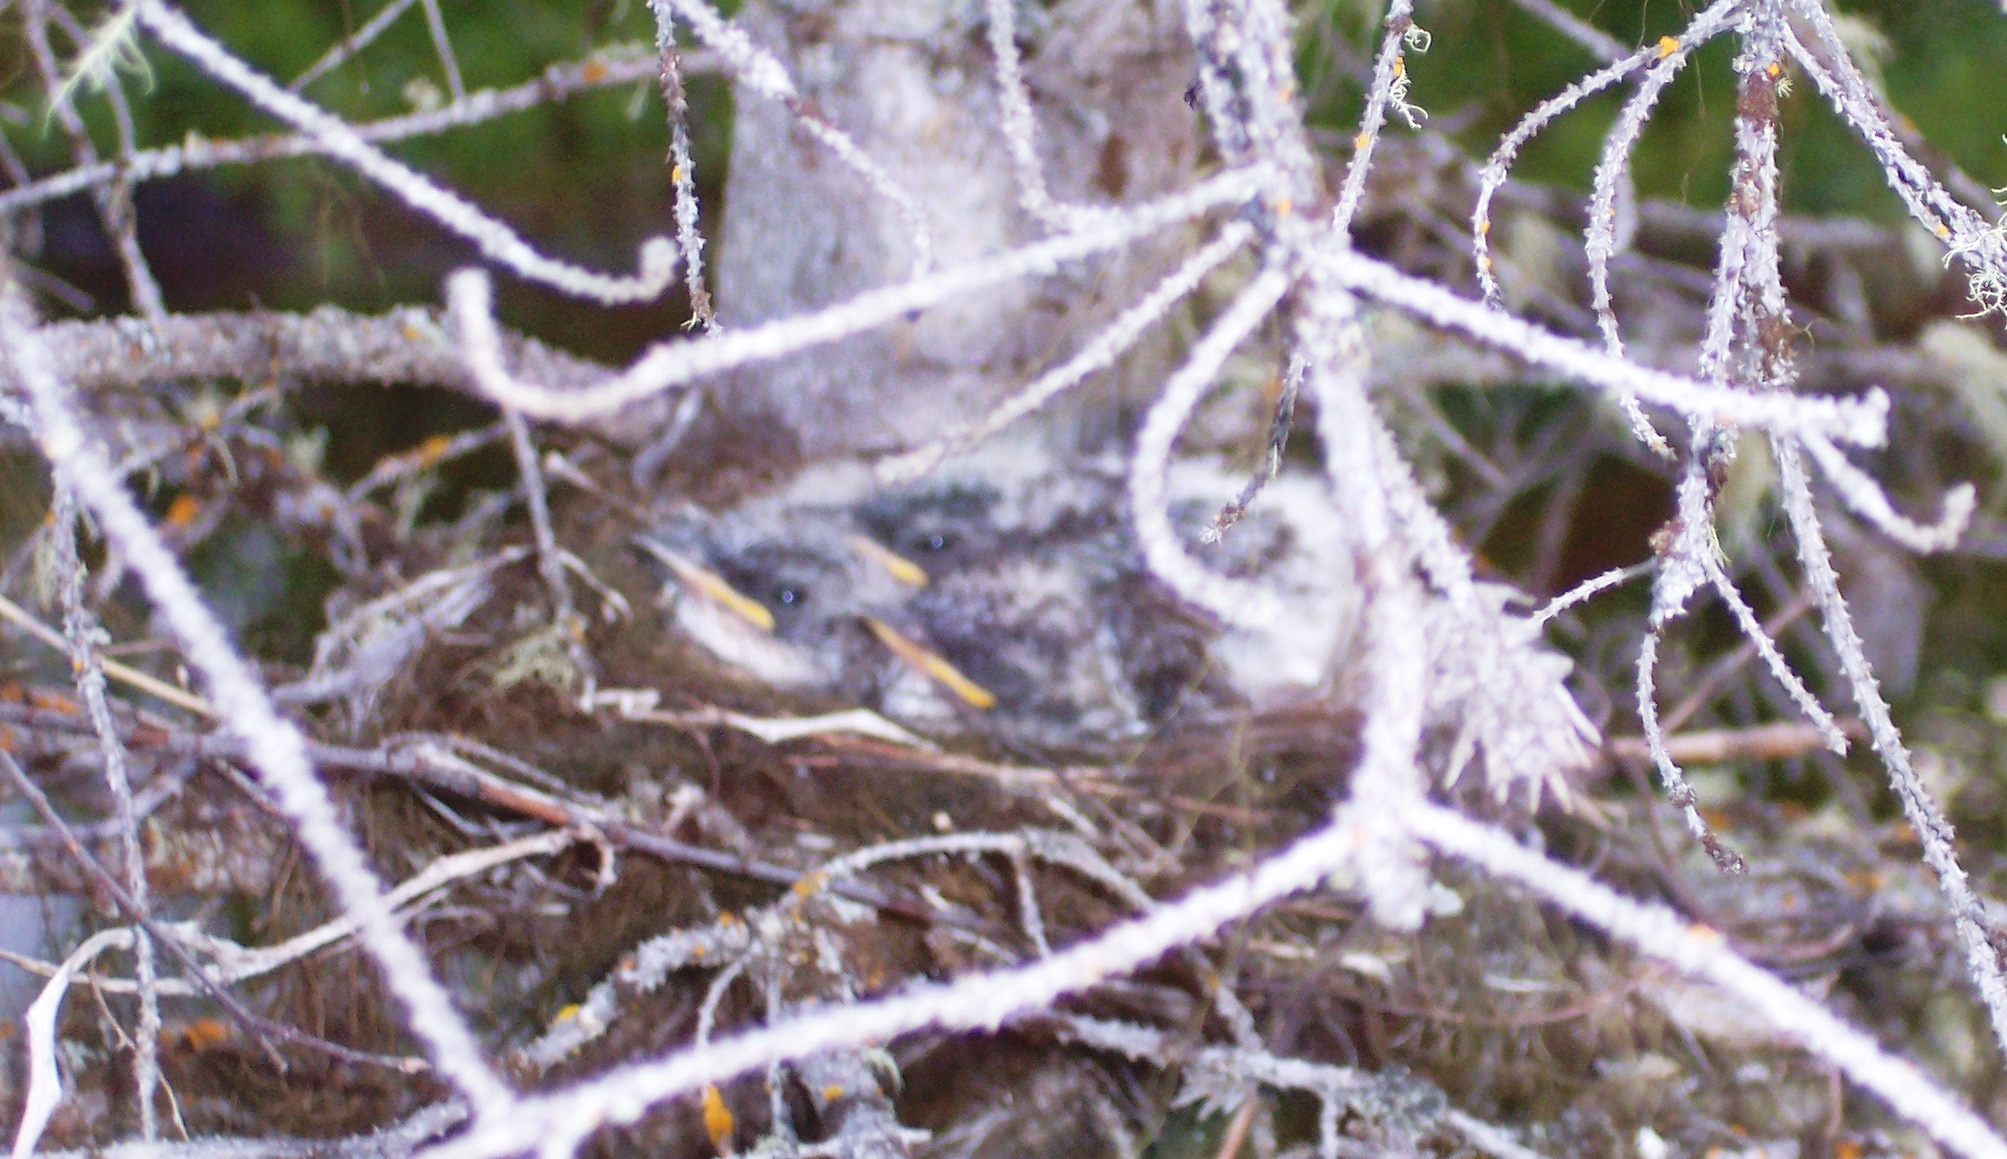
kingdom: Animalia
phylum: Chordata
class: Aves
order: Passeriformes
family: Tyrannidae
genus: Tyrannus
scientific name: Tyrannus tyrannus
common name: Eastern kingbird
